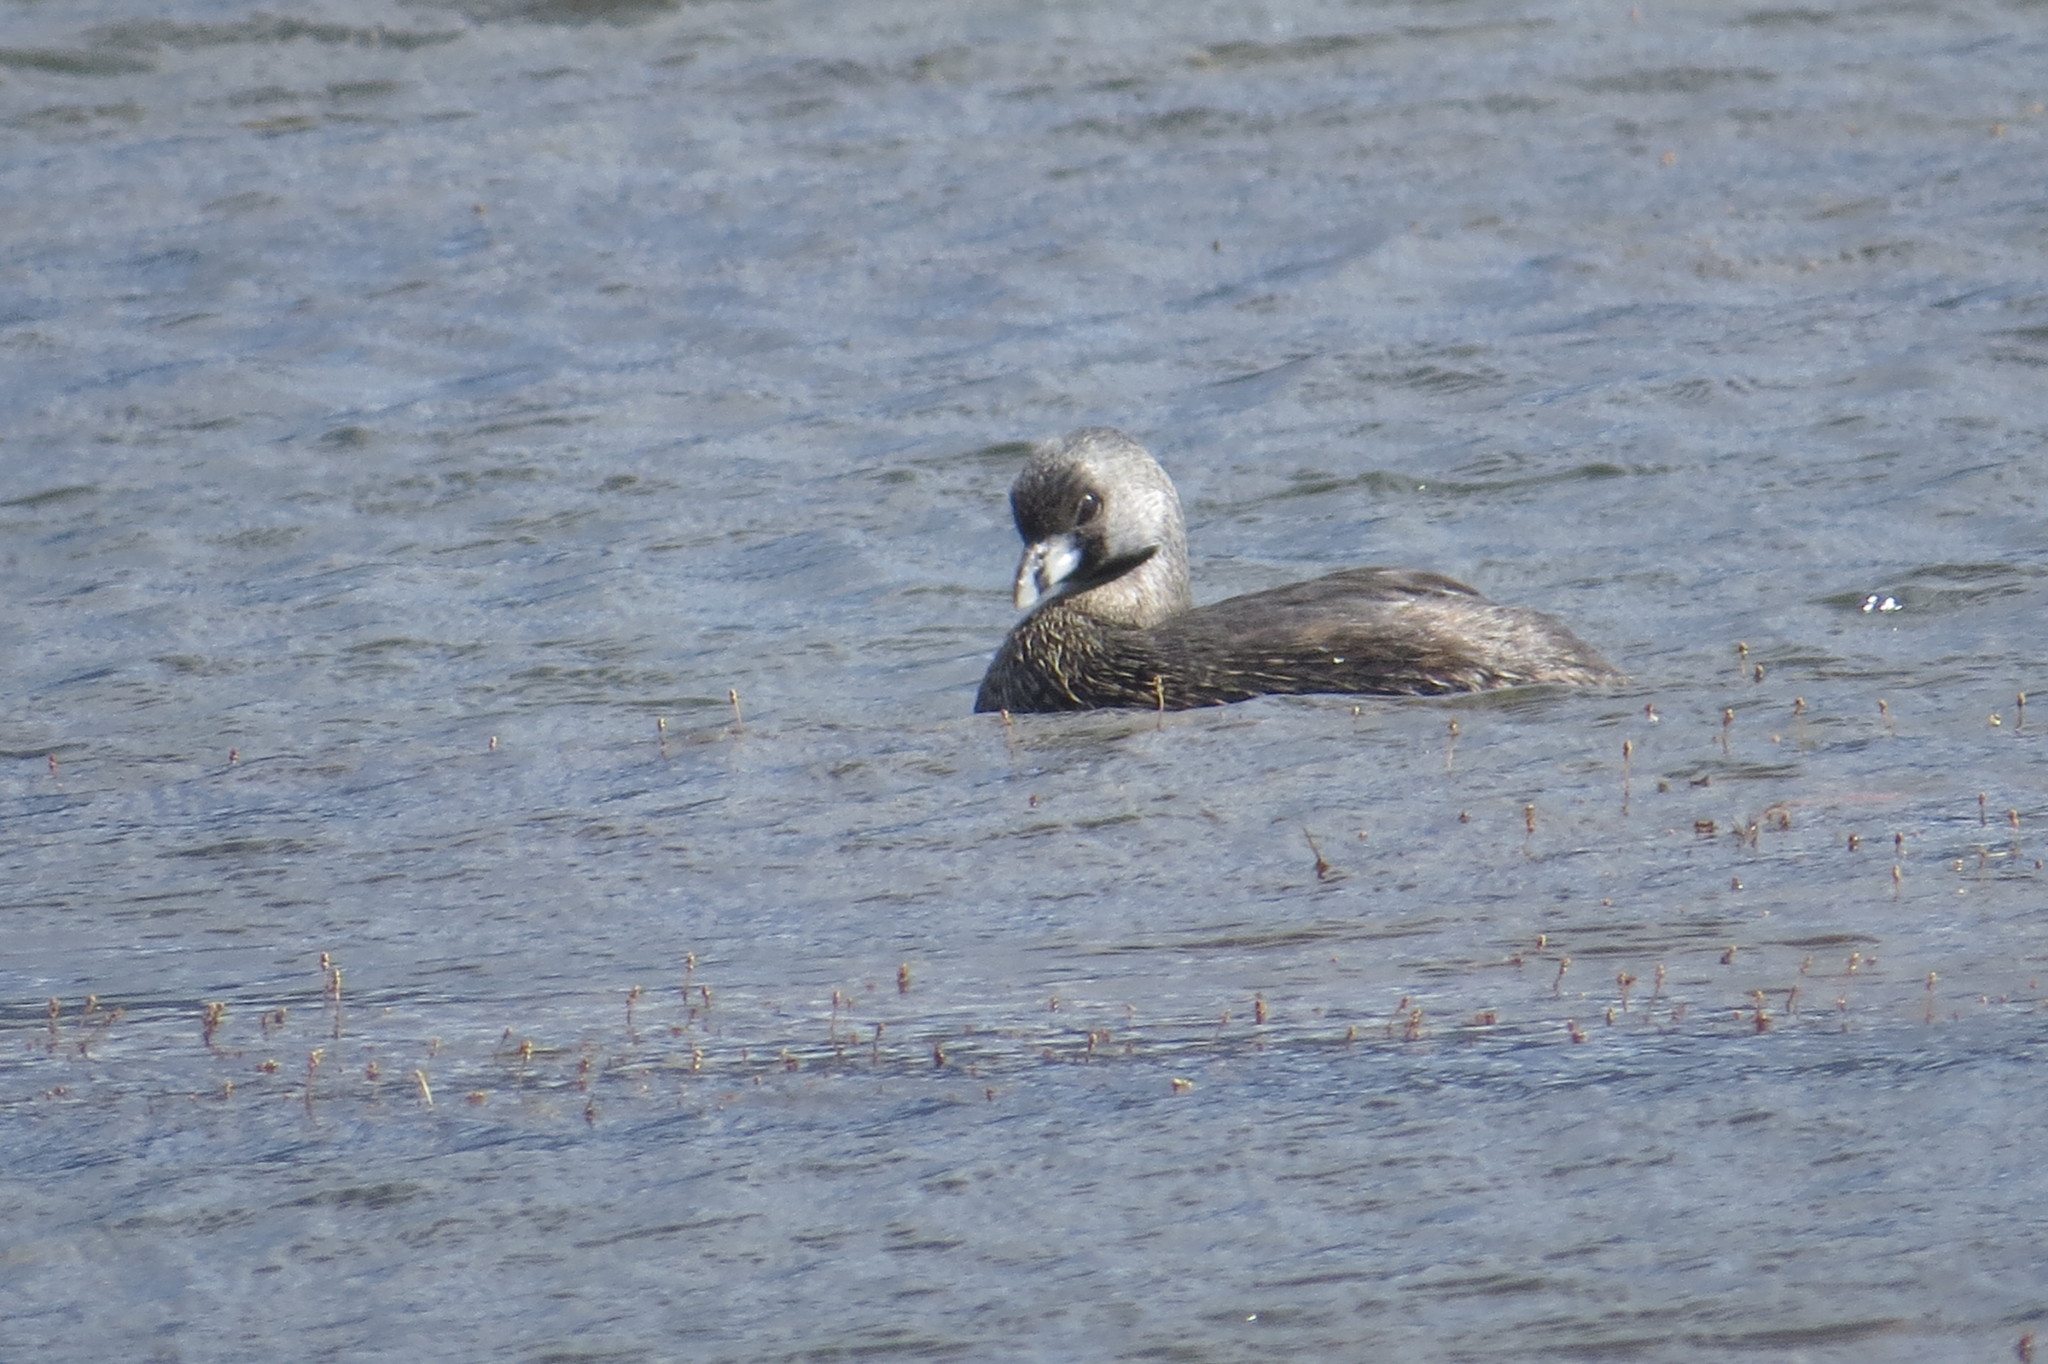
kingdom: Animalia
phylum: Chordata
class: Aves
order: Podicipediformes
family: Podicipedidae
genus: Podilymbus
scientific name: Podilymbus podiceps
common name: Pied-billed grebe
